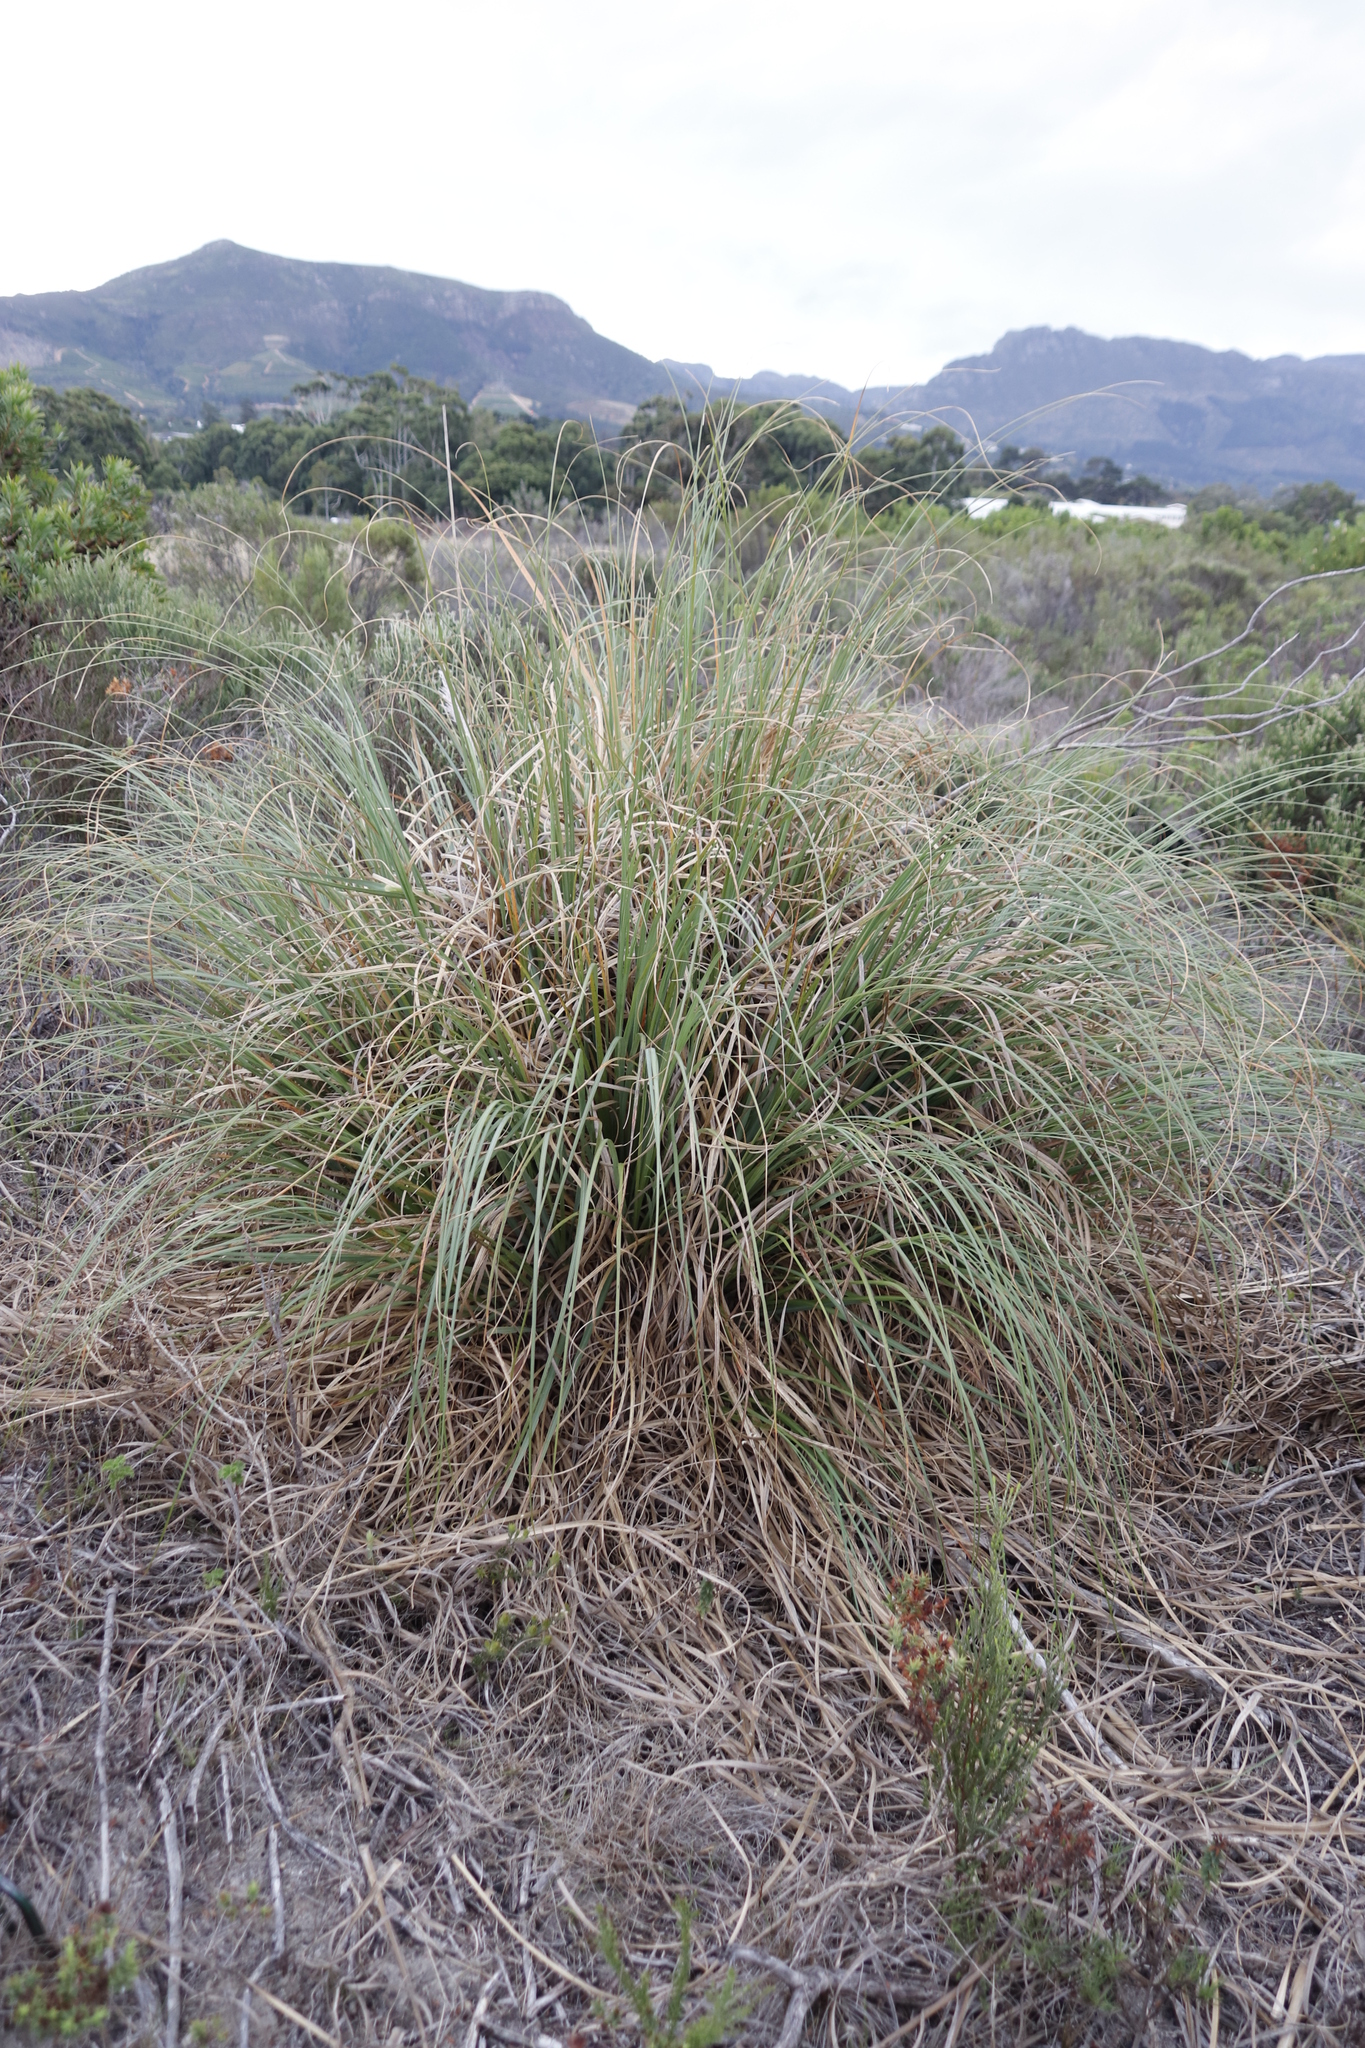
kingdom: Plantae
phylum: Tracheophyta
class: Liliopsida
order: Poales
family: Poaceae
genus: Cortaderia
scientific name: Cortaderia selloana
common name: Uruguayan pampas grass
